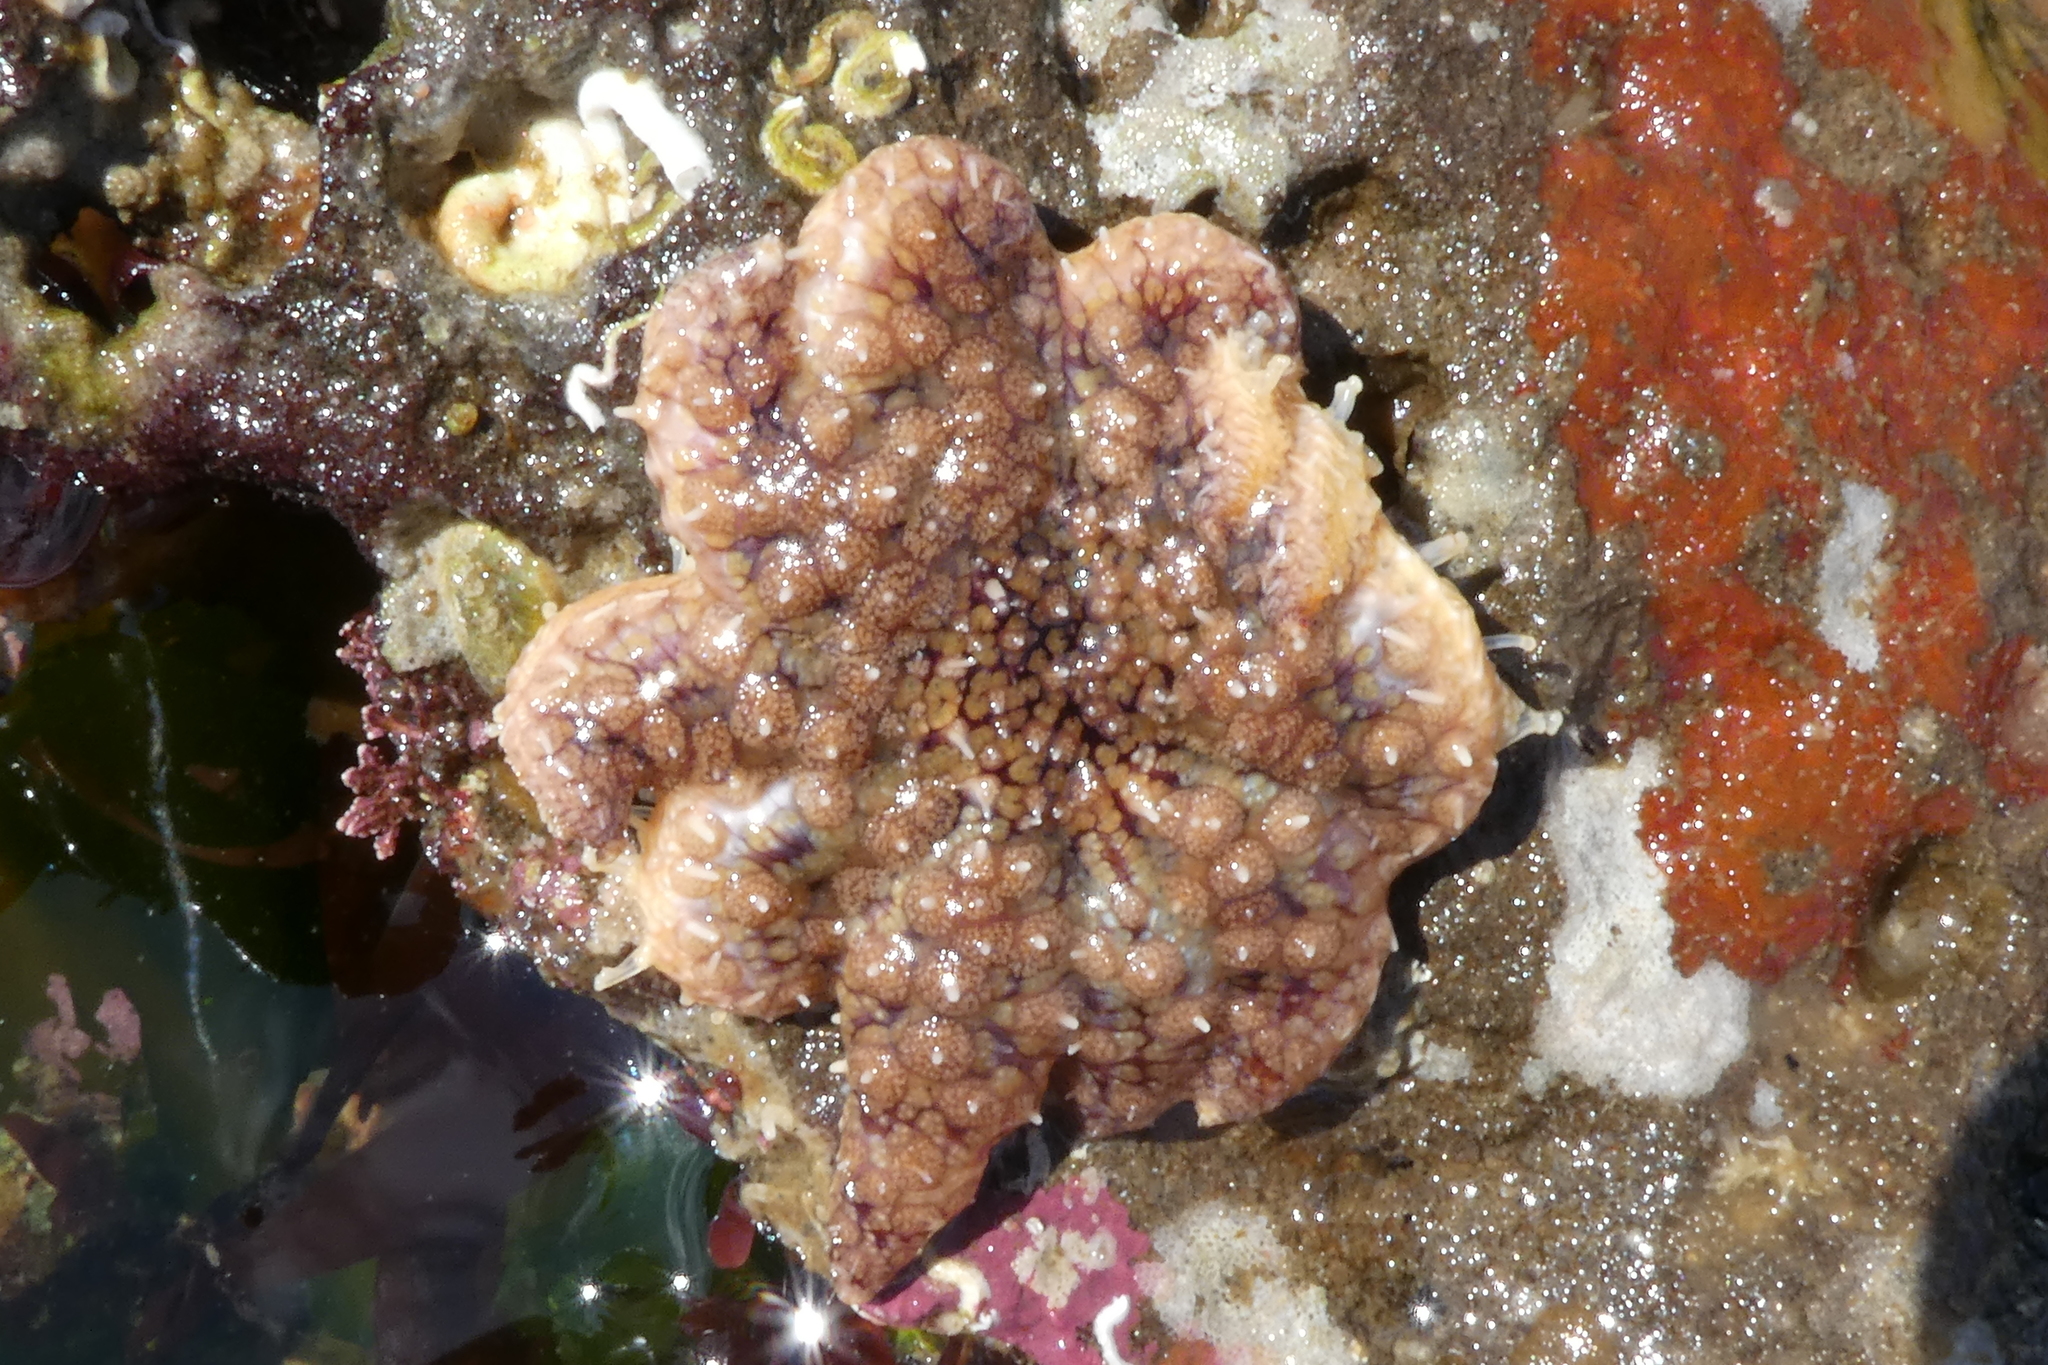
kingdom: Animalia
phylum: Echinodermata
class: Asteroidea
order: Forcipulatida
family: Asteriidae
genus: Pycnopodia
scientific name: Pycnopodia helianthoides
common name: Rag mop
